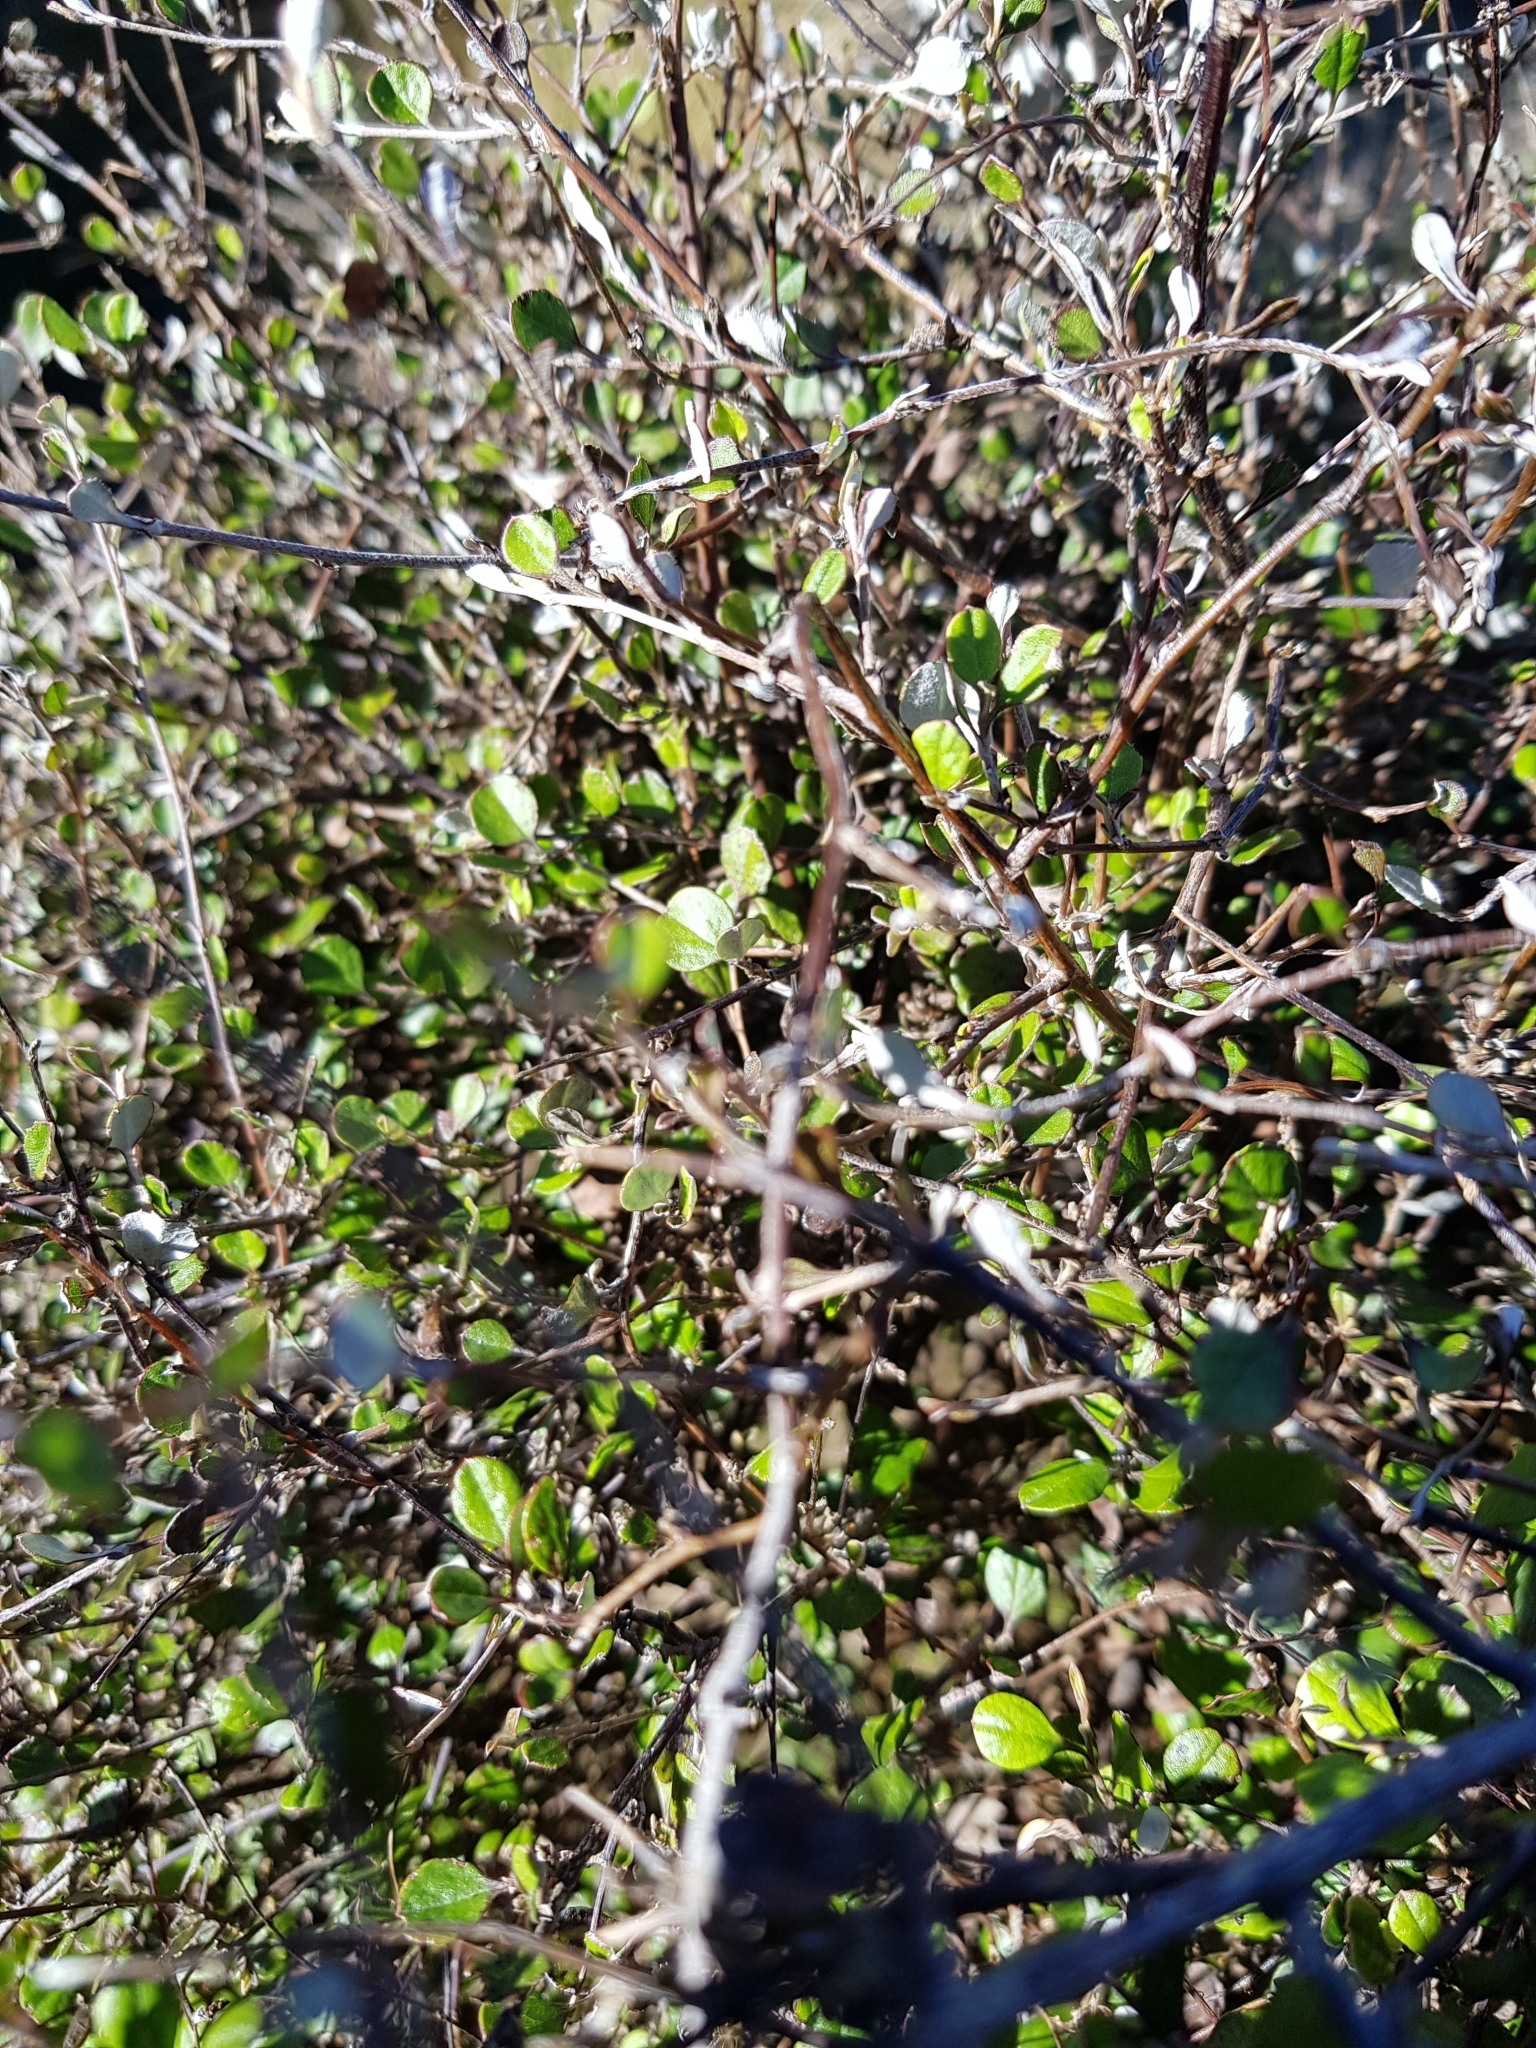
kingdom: Plantae
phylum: Tracheophyta
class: Magnoliopsida
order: Asterales
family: Asteraceae
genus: Ozothamnus
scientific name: Ozothamnus glomeratus
